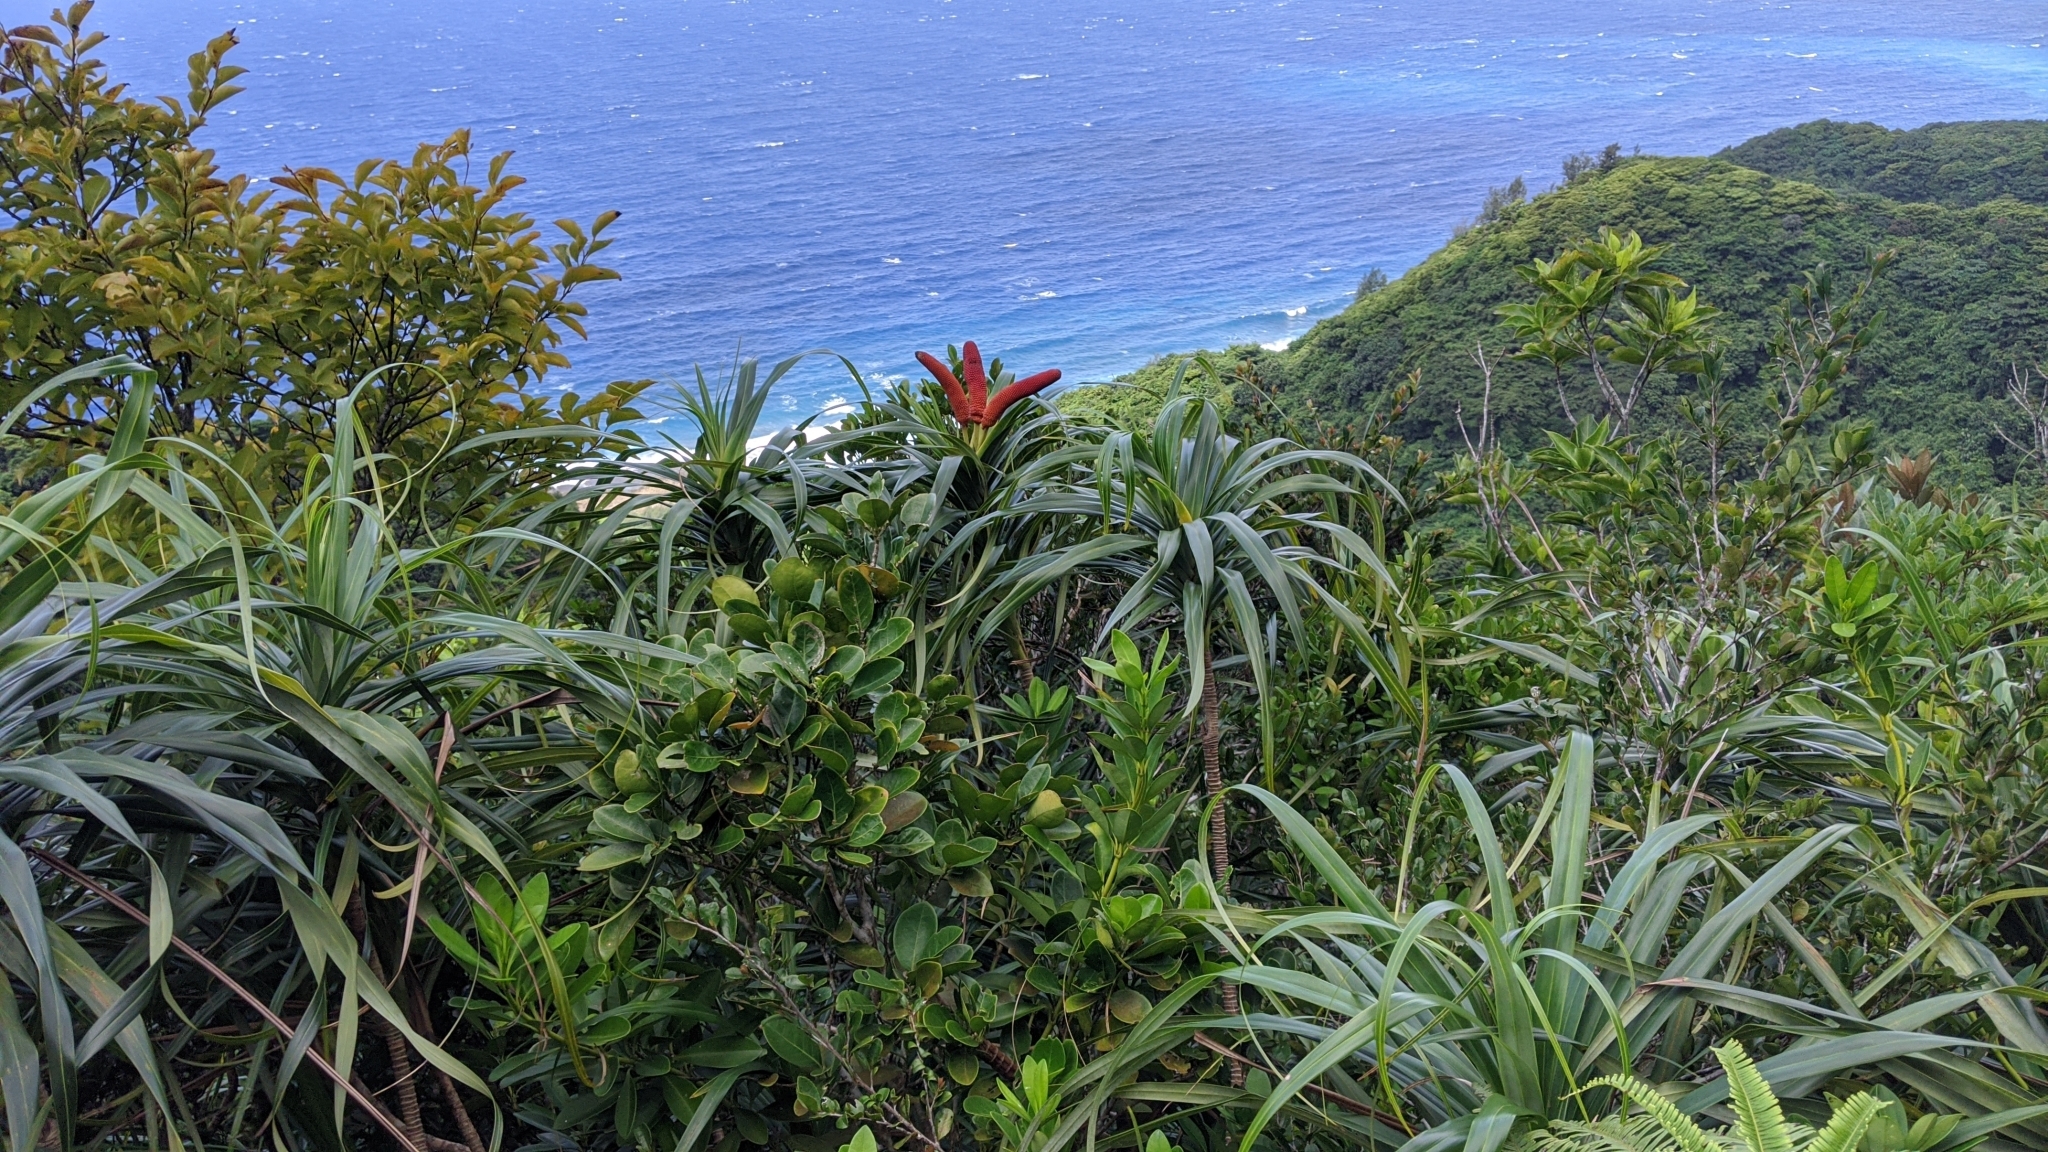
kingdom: Plantae
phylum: Tracheophyta
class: Liliopsida
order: Pandanales
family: Pandanaceae
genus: Freycinetia
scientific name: Freycinetia formosana
